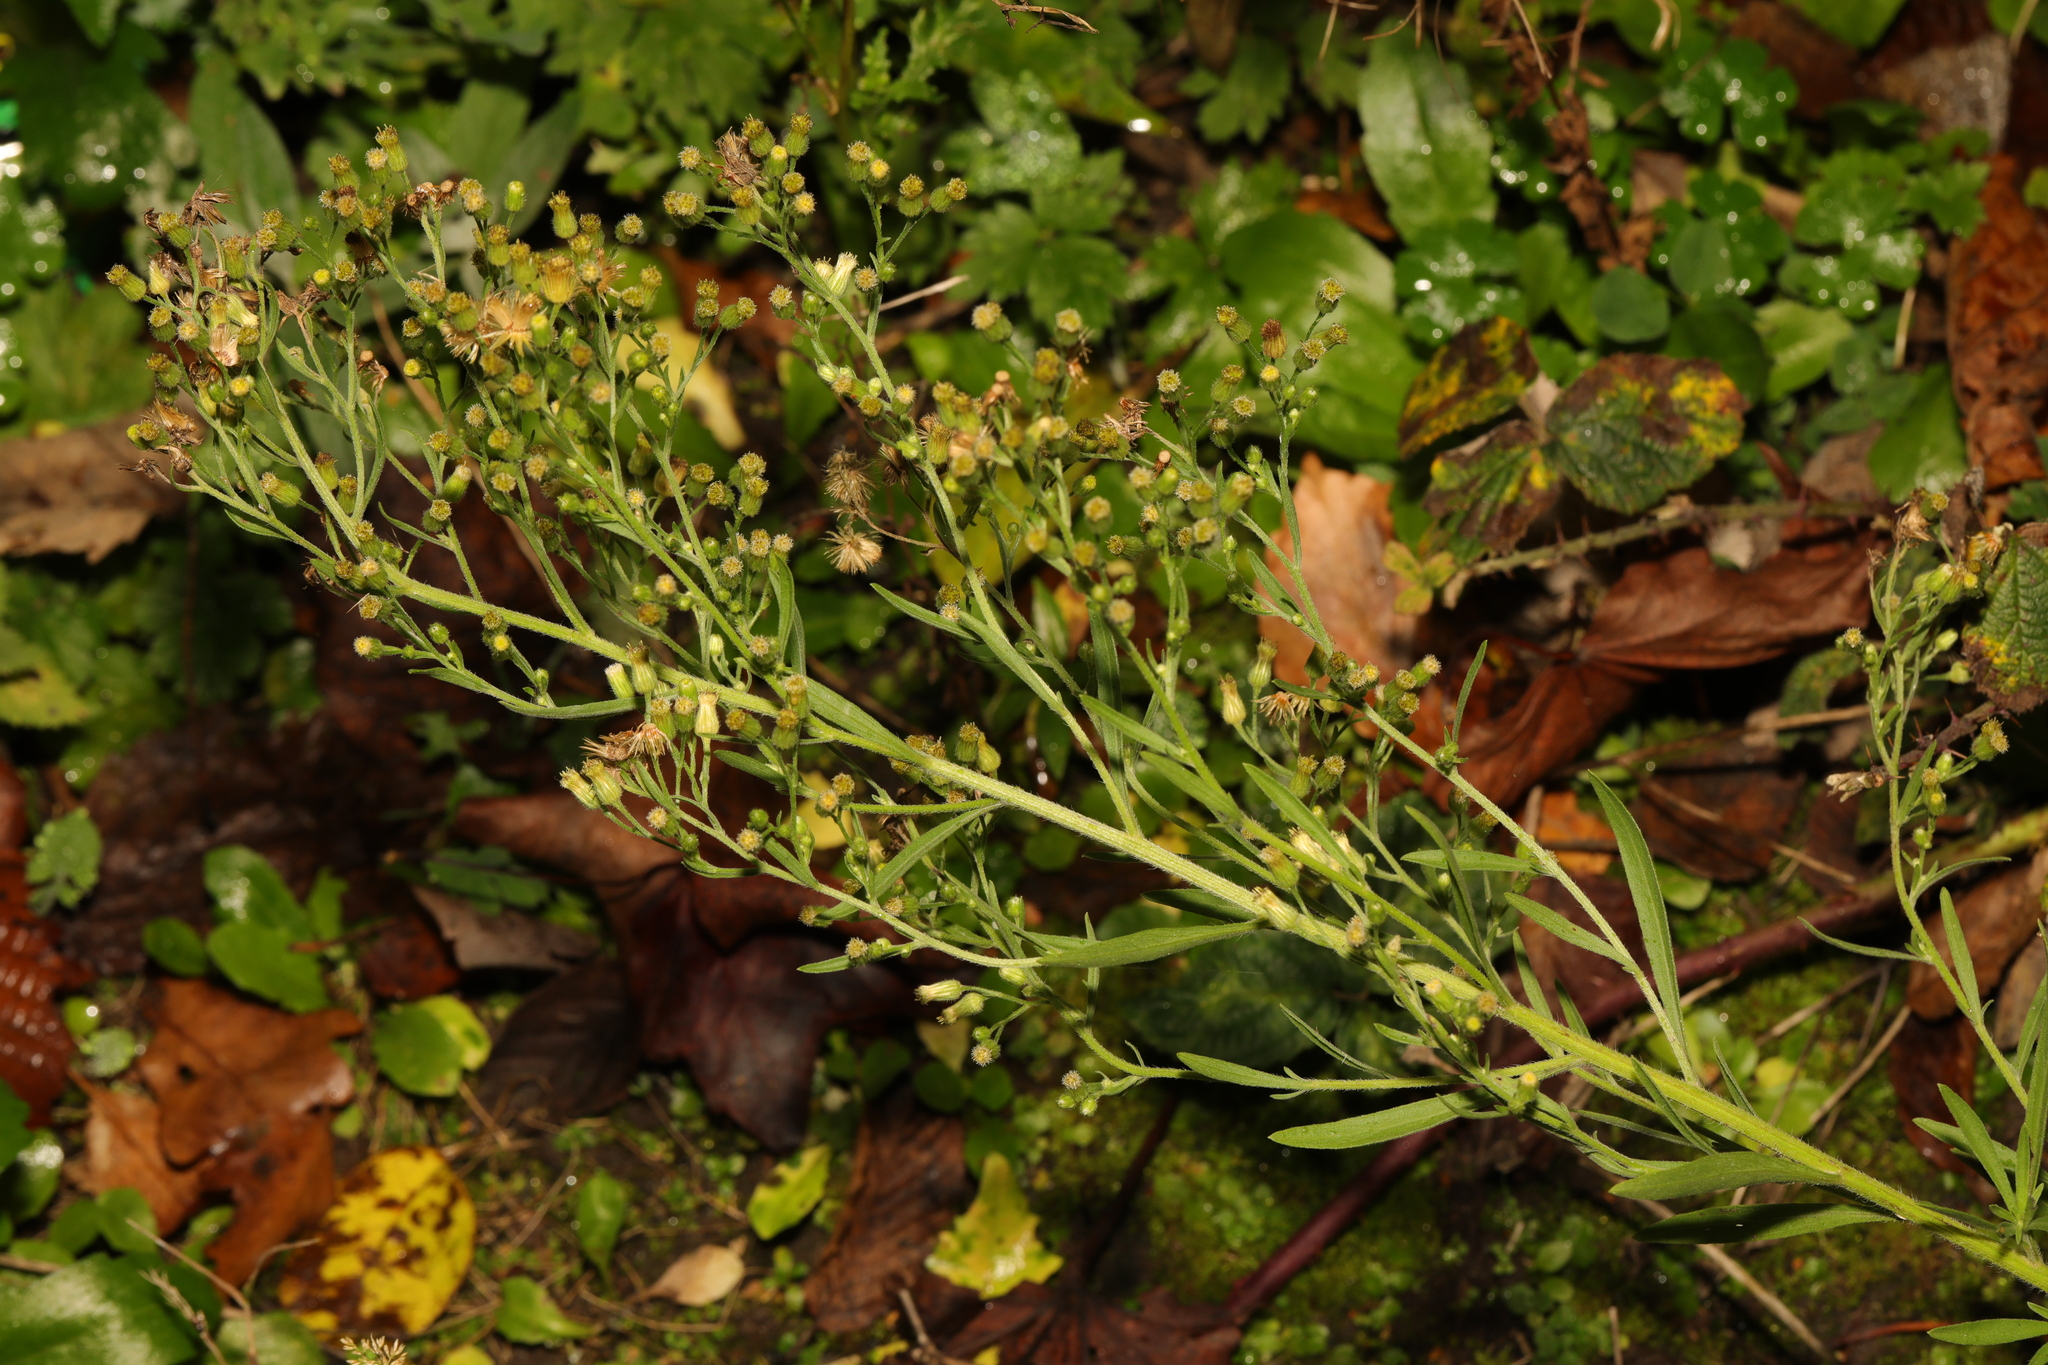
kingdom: Plantae
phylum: Tracheophyta
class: Magnoliopsida
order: Asterales
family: Asteraceae
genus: Erigeron
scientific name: Erigeron sumatrensis
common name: Daisy
